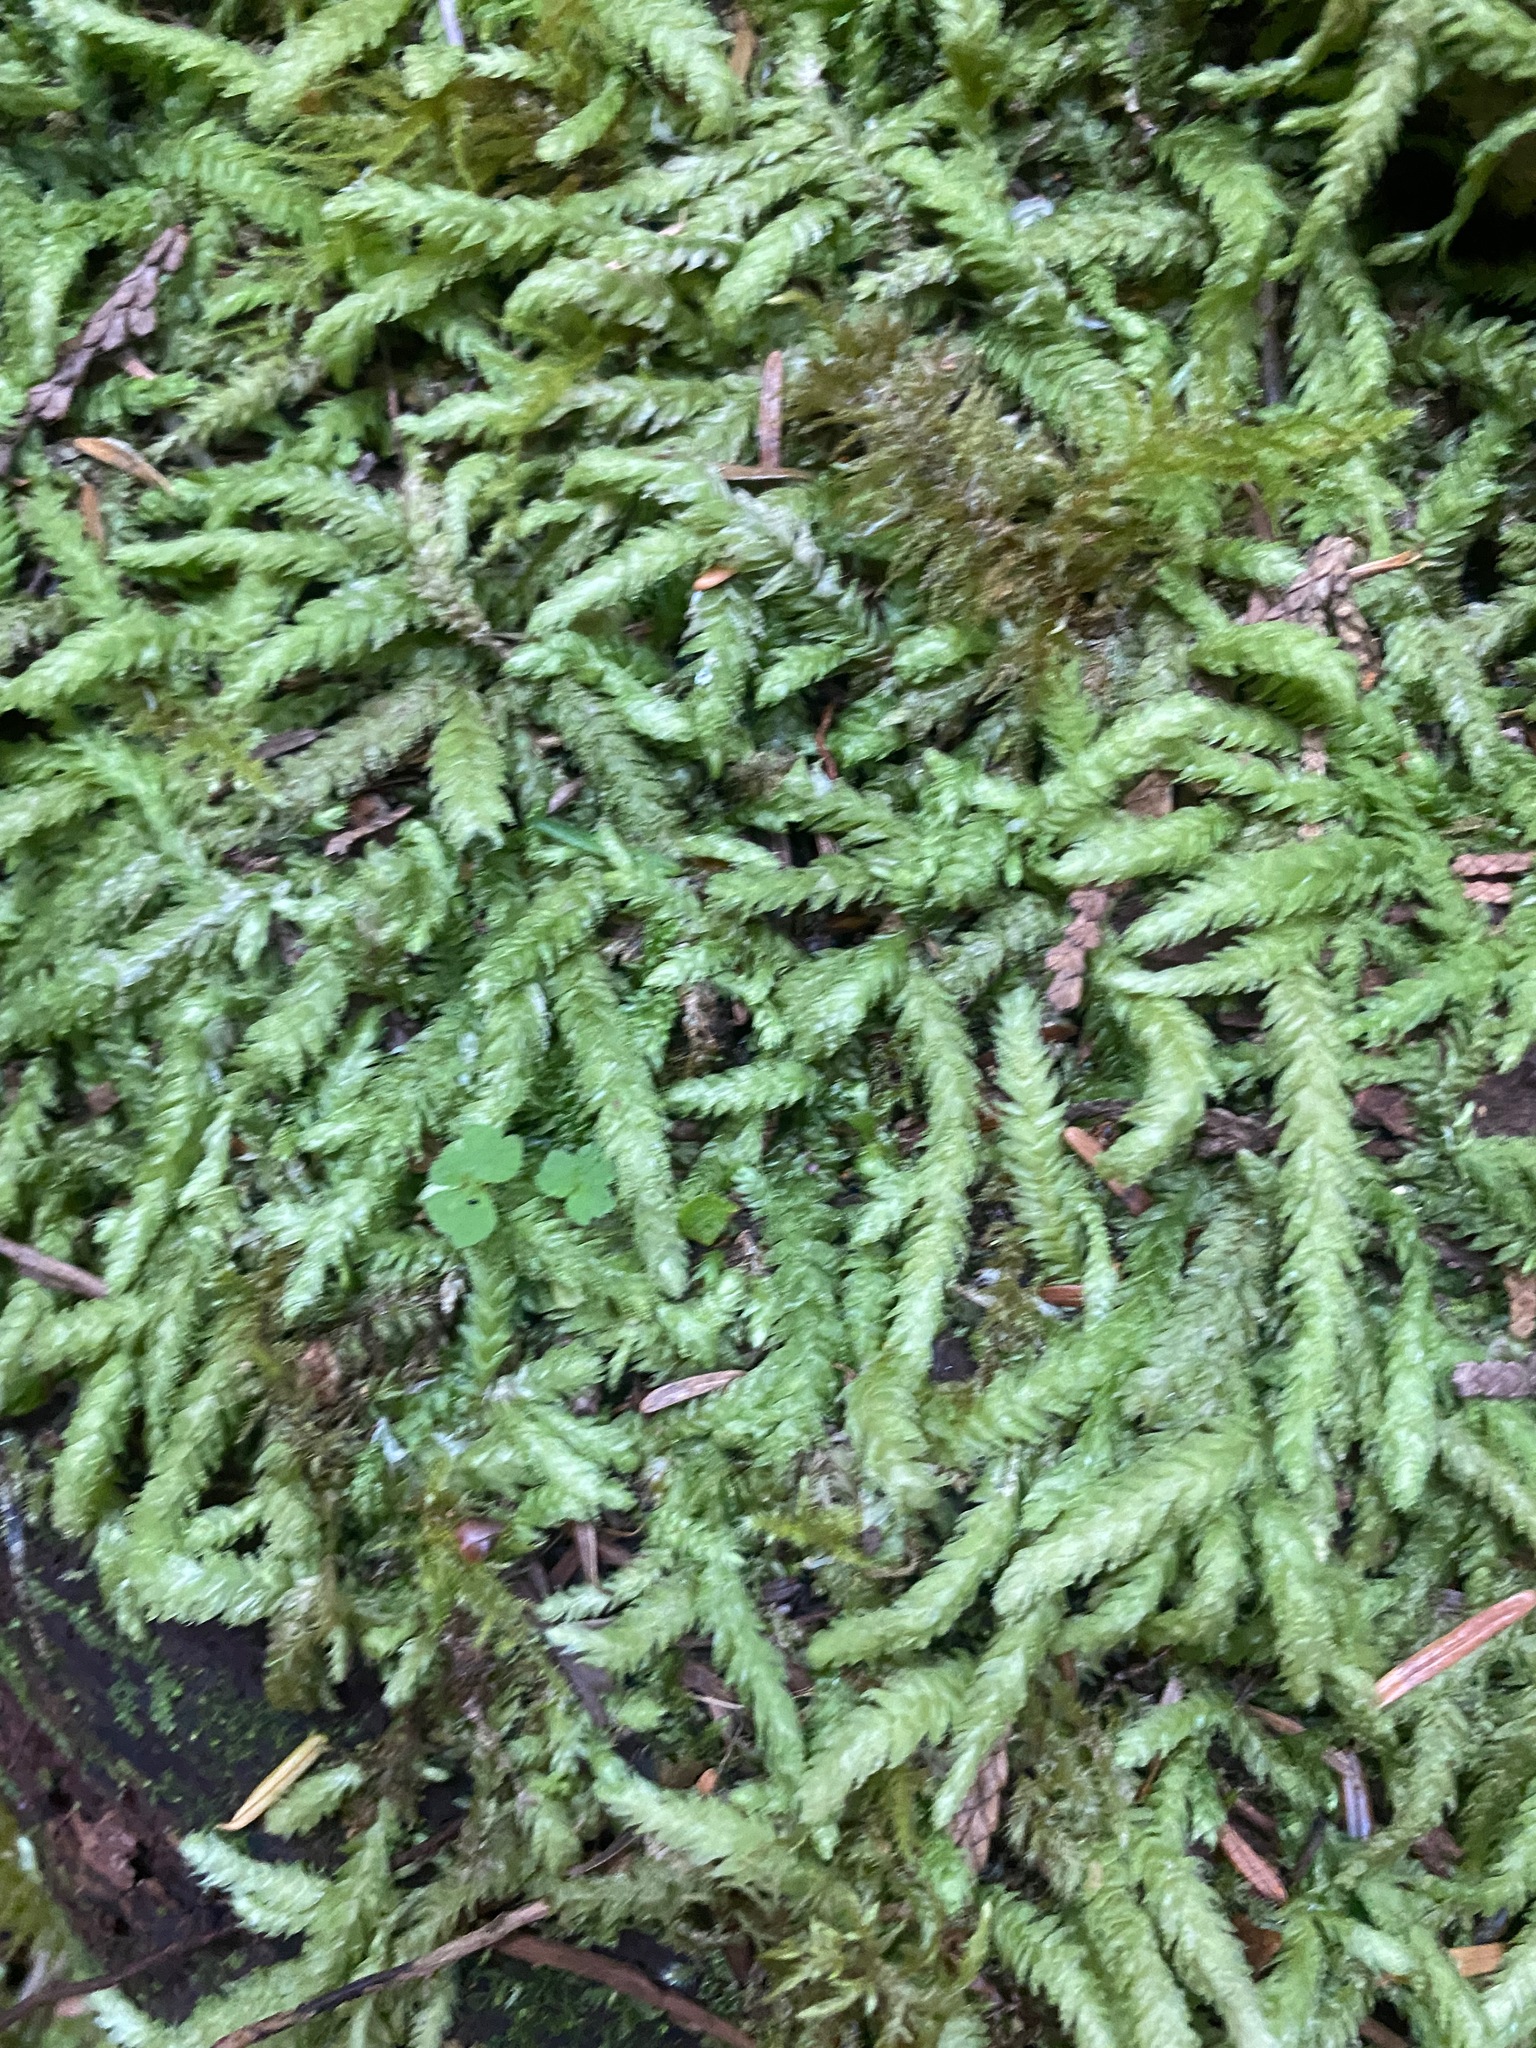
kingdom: Plantae
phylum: Bryophyta
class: Bryopsida
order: Hypnales
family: Plagiotheciaceae
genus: Plagiothecium
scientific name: Plagiothecium undulatum
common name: Waved silk-moss
